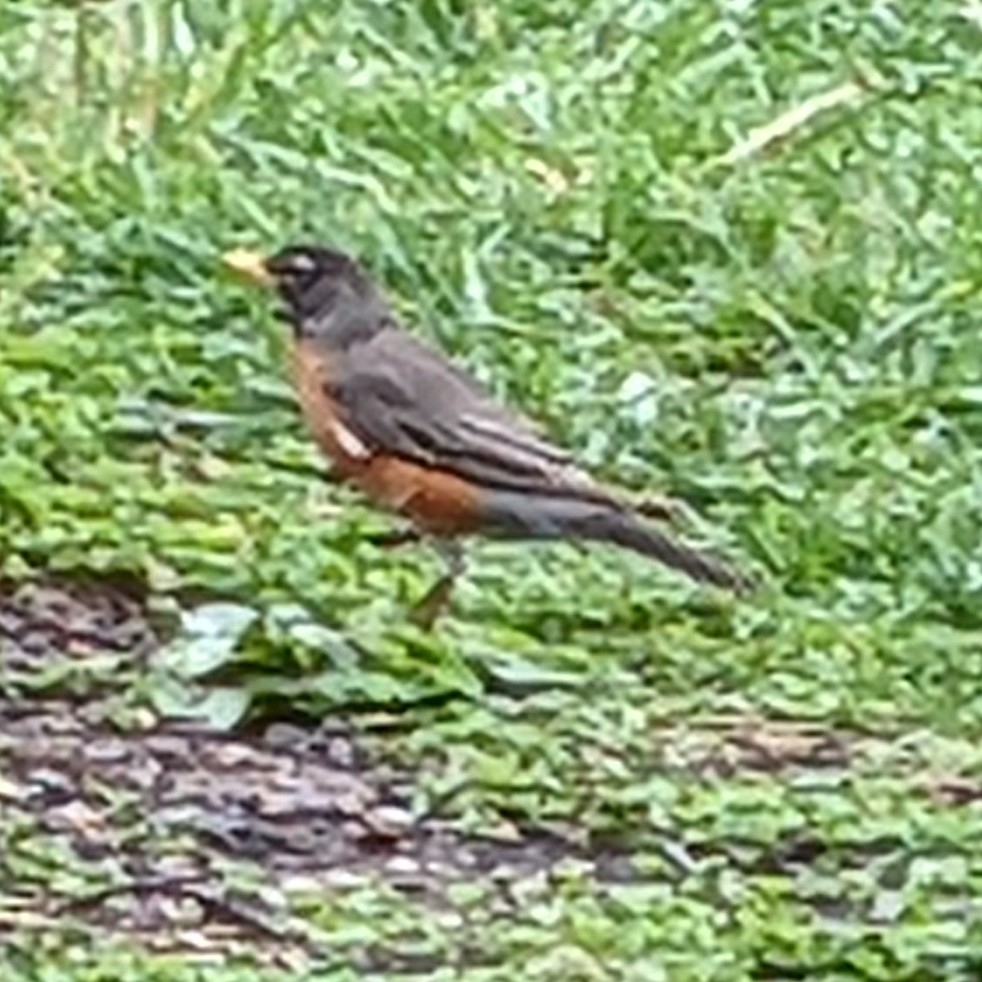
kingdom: Animalia
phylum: Chordata
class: Aves
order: Passeriformes
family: Turdidae
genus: Turdus
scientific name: Turdus migratorius
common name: American robin
